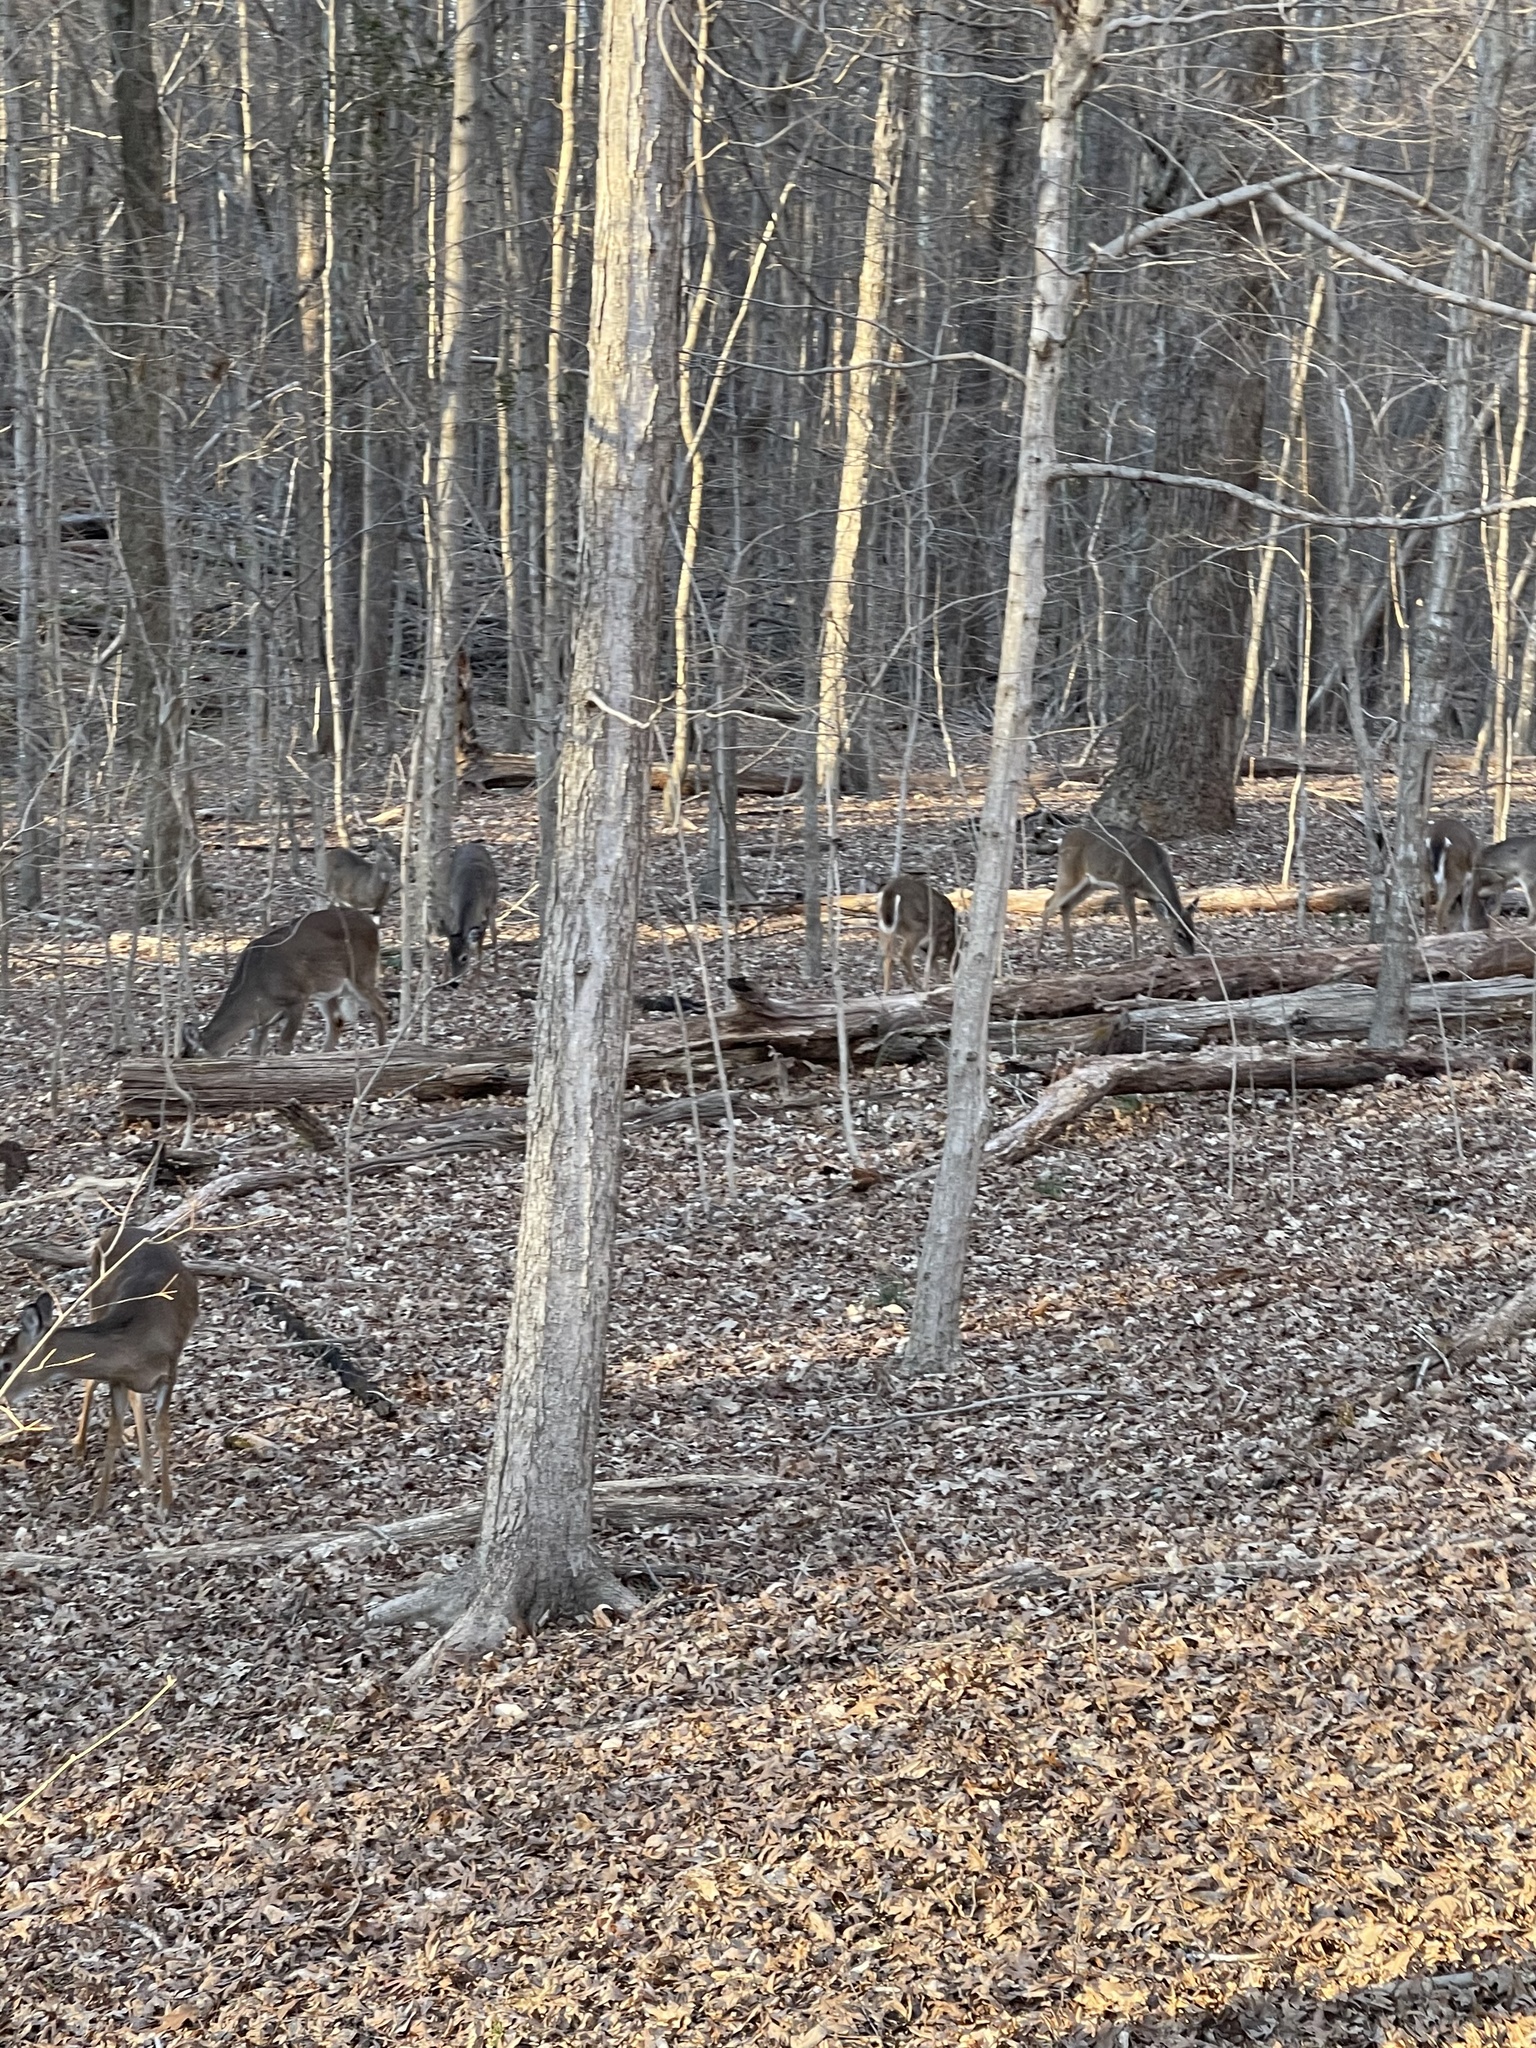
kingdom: Animalia
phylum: Chordata
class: Mammalia
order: Artiodactyla
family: Cervidae
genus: Odocoileus
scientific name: Odocoileus virginianus
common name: White-tailed deer
